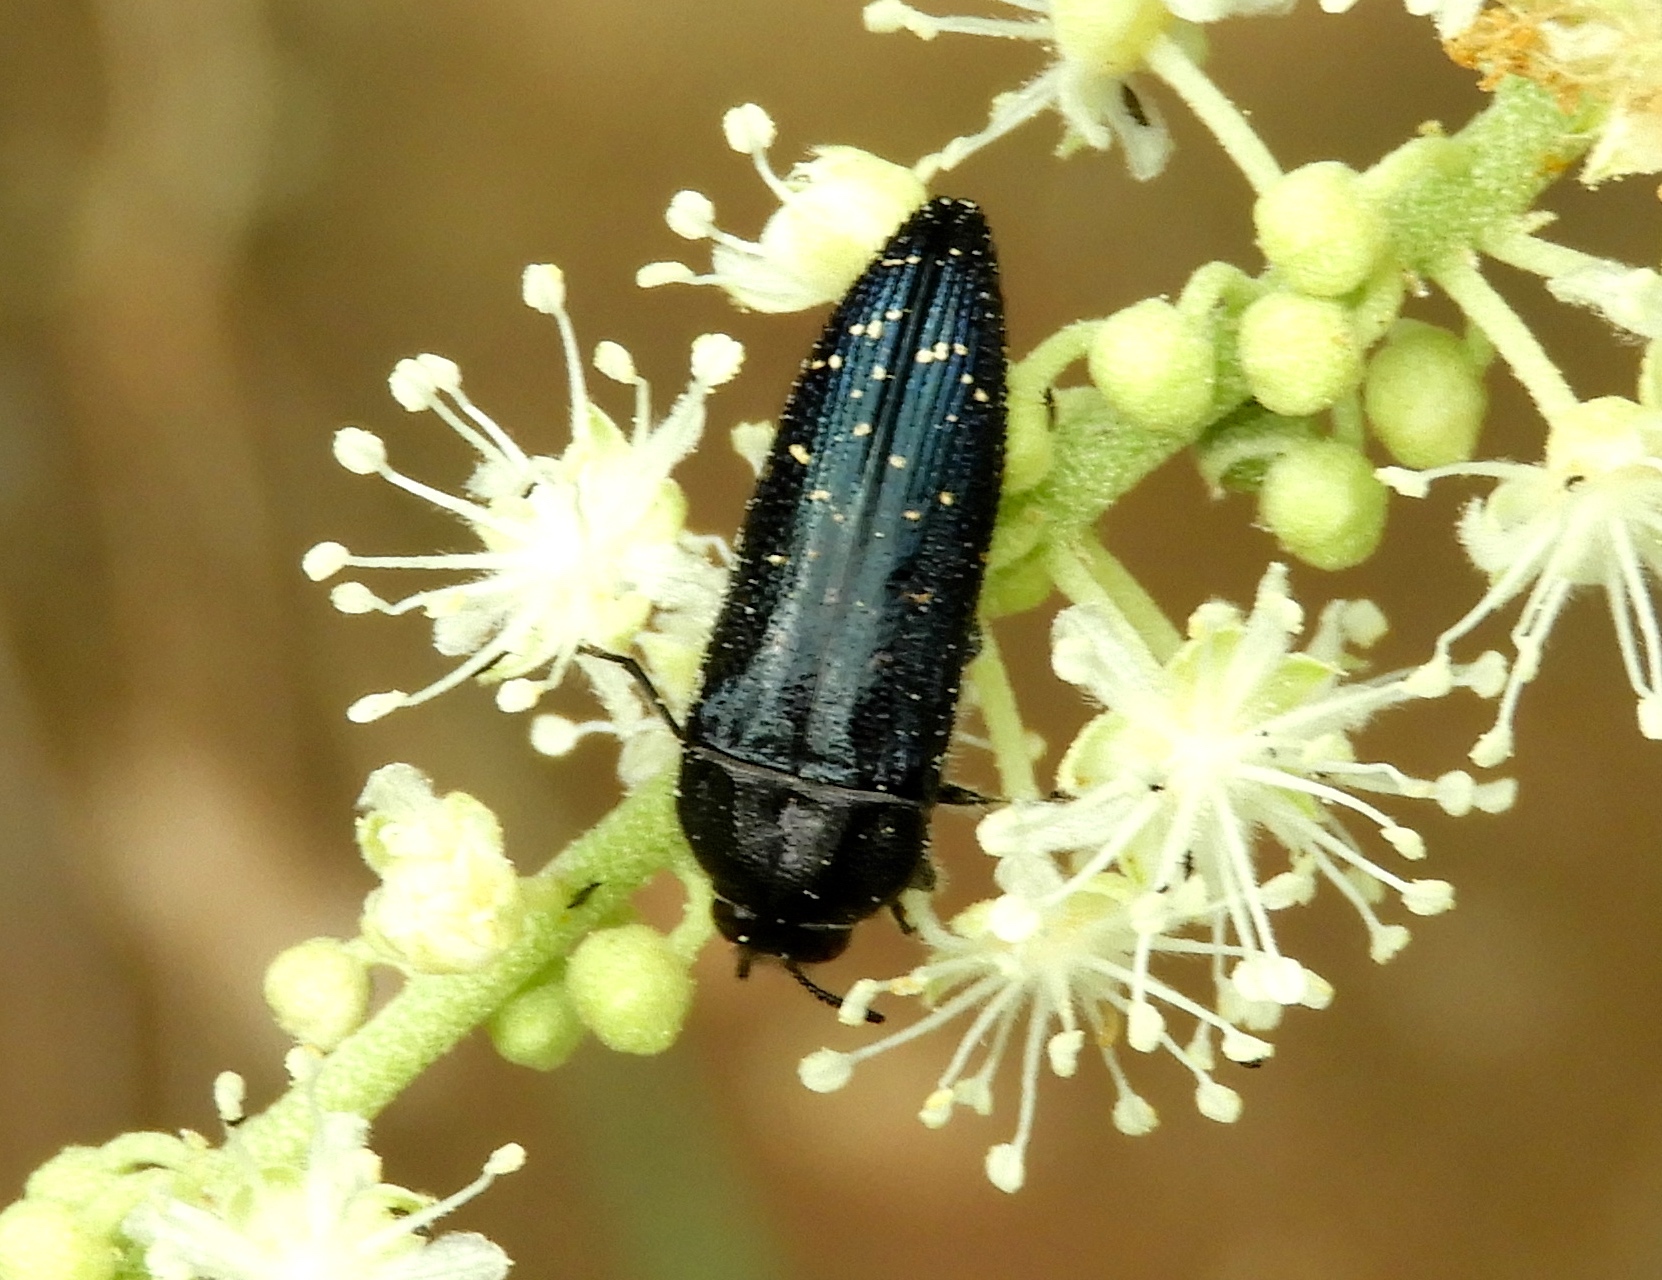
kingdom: Animalia
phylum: Arthropoda
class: Insecta
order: Coleoptera
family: Buprestidae
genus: Acmaeodera
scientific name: Acmaeodera impluviata
